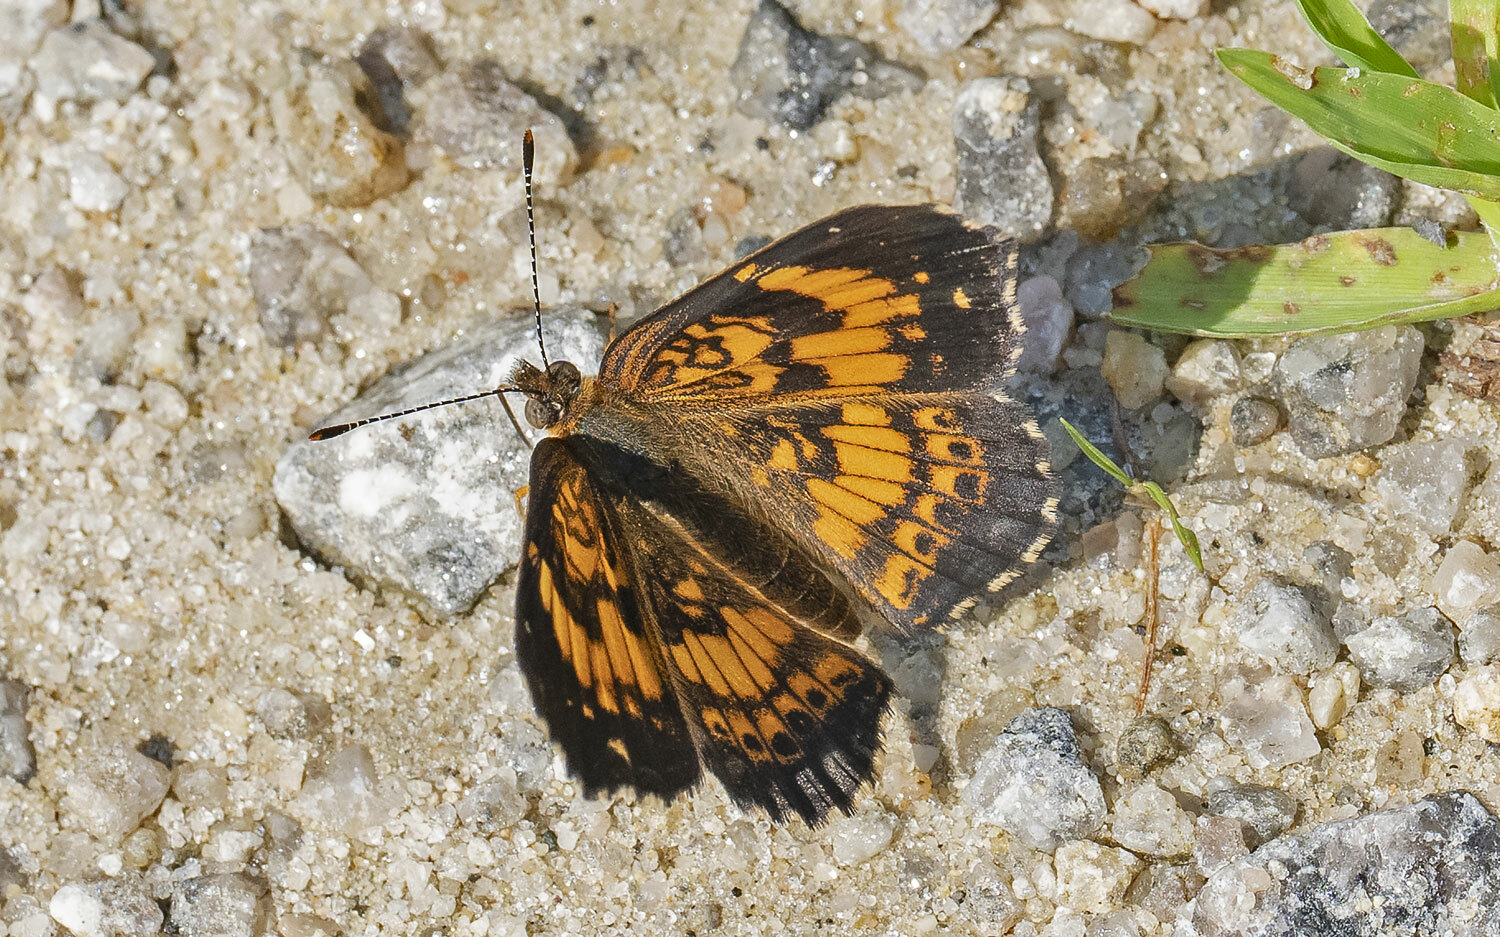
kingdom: Animalia
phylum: Arthropoda
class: Insecta
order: Lepidoptera
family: Nymphalidae
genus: Chlosyne
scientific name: Chlosyne nycteis
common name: Silvery checkerspot
